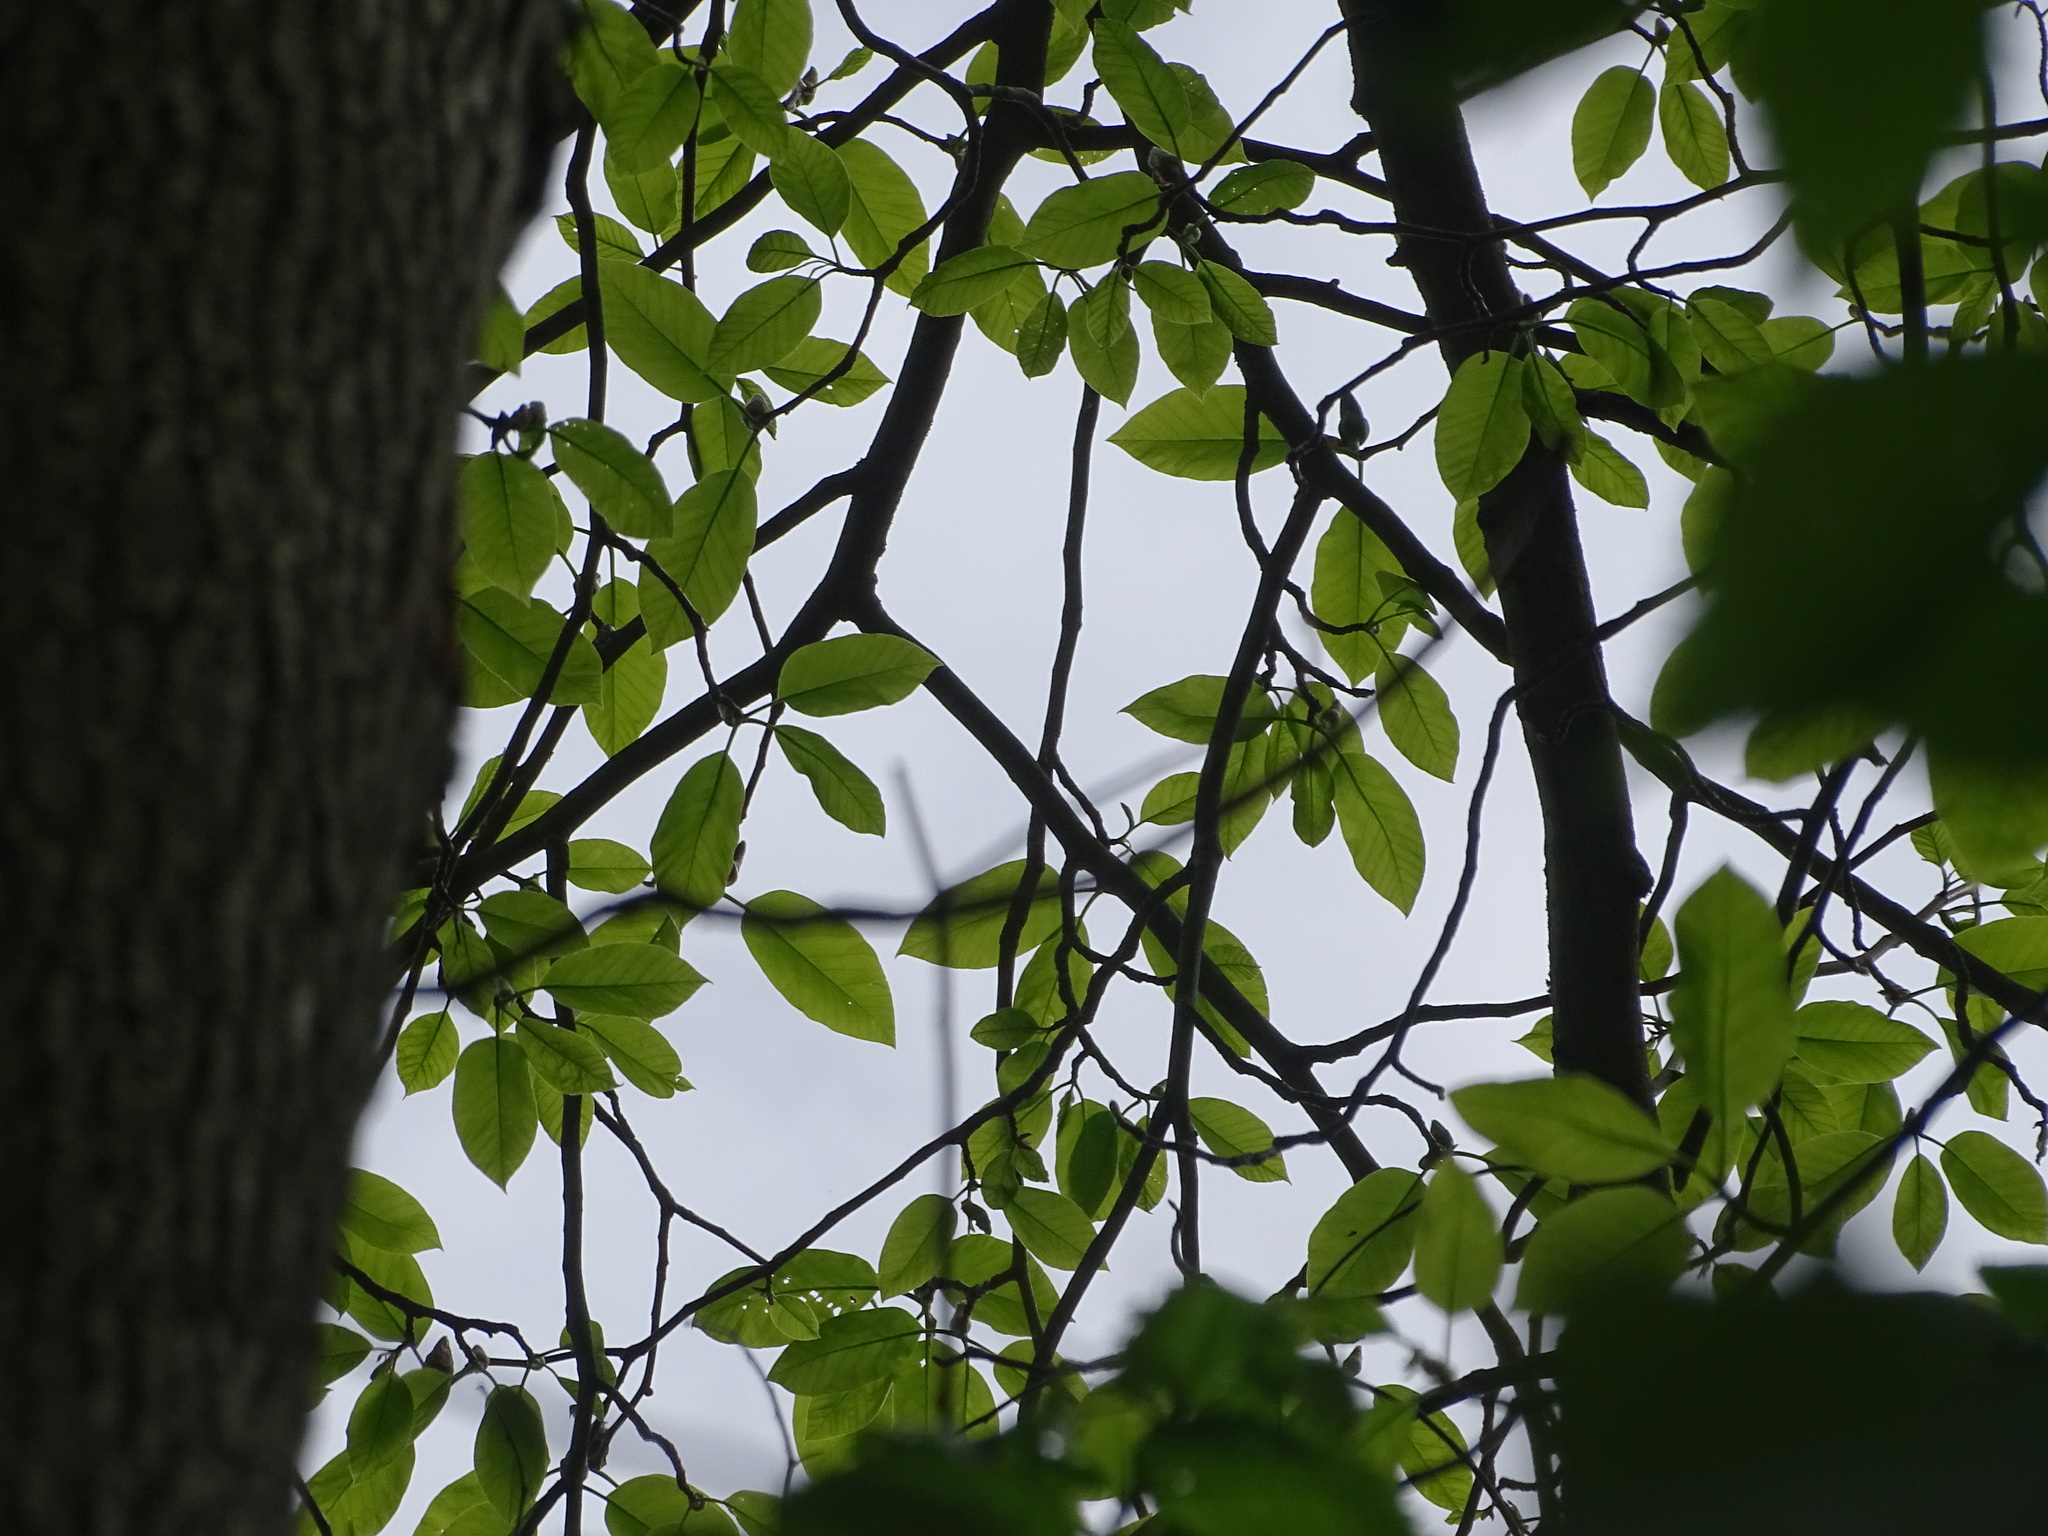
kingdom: Plantae
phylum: Tracheophyta
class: Magnoliopsida
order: Magnoliales
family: Magnoliaceae
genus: Magnolia
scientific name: Magnolia acuminata
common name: Cucumber magnolia
